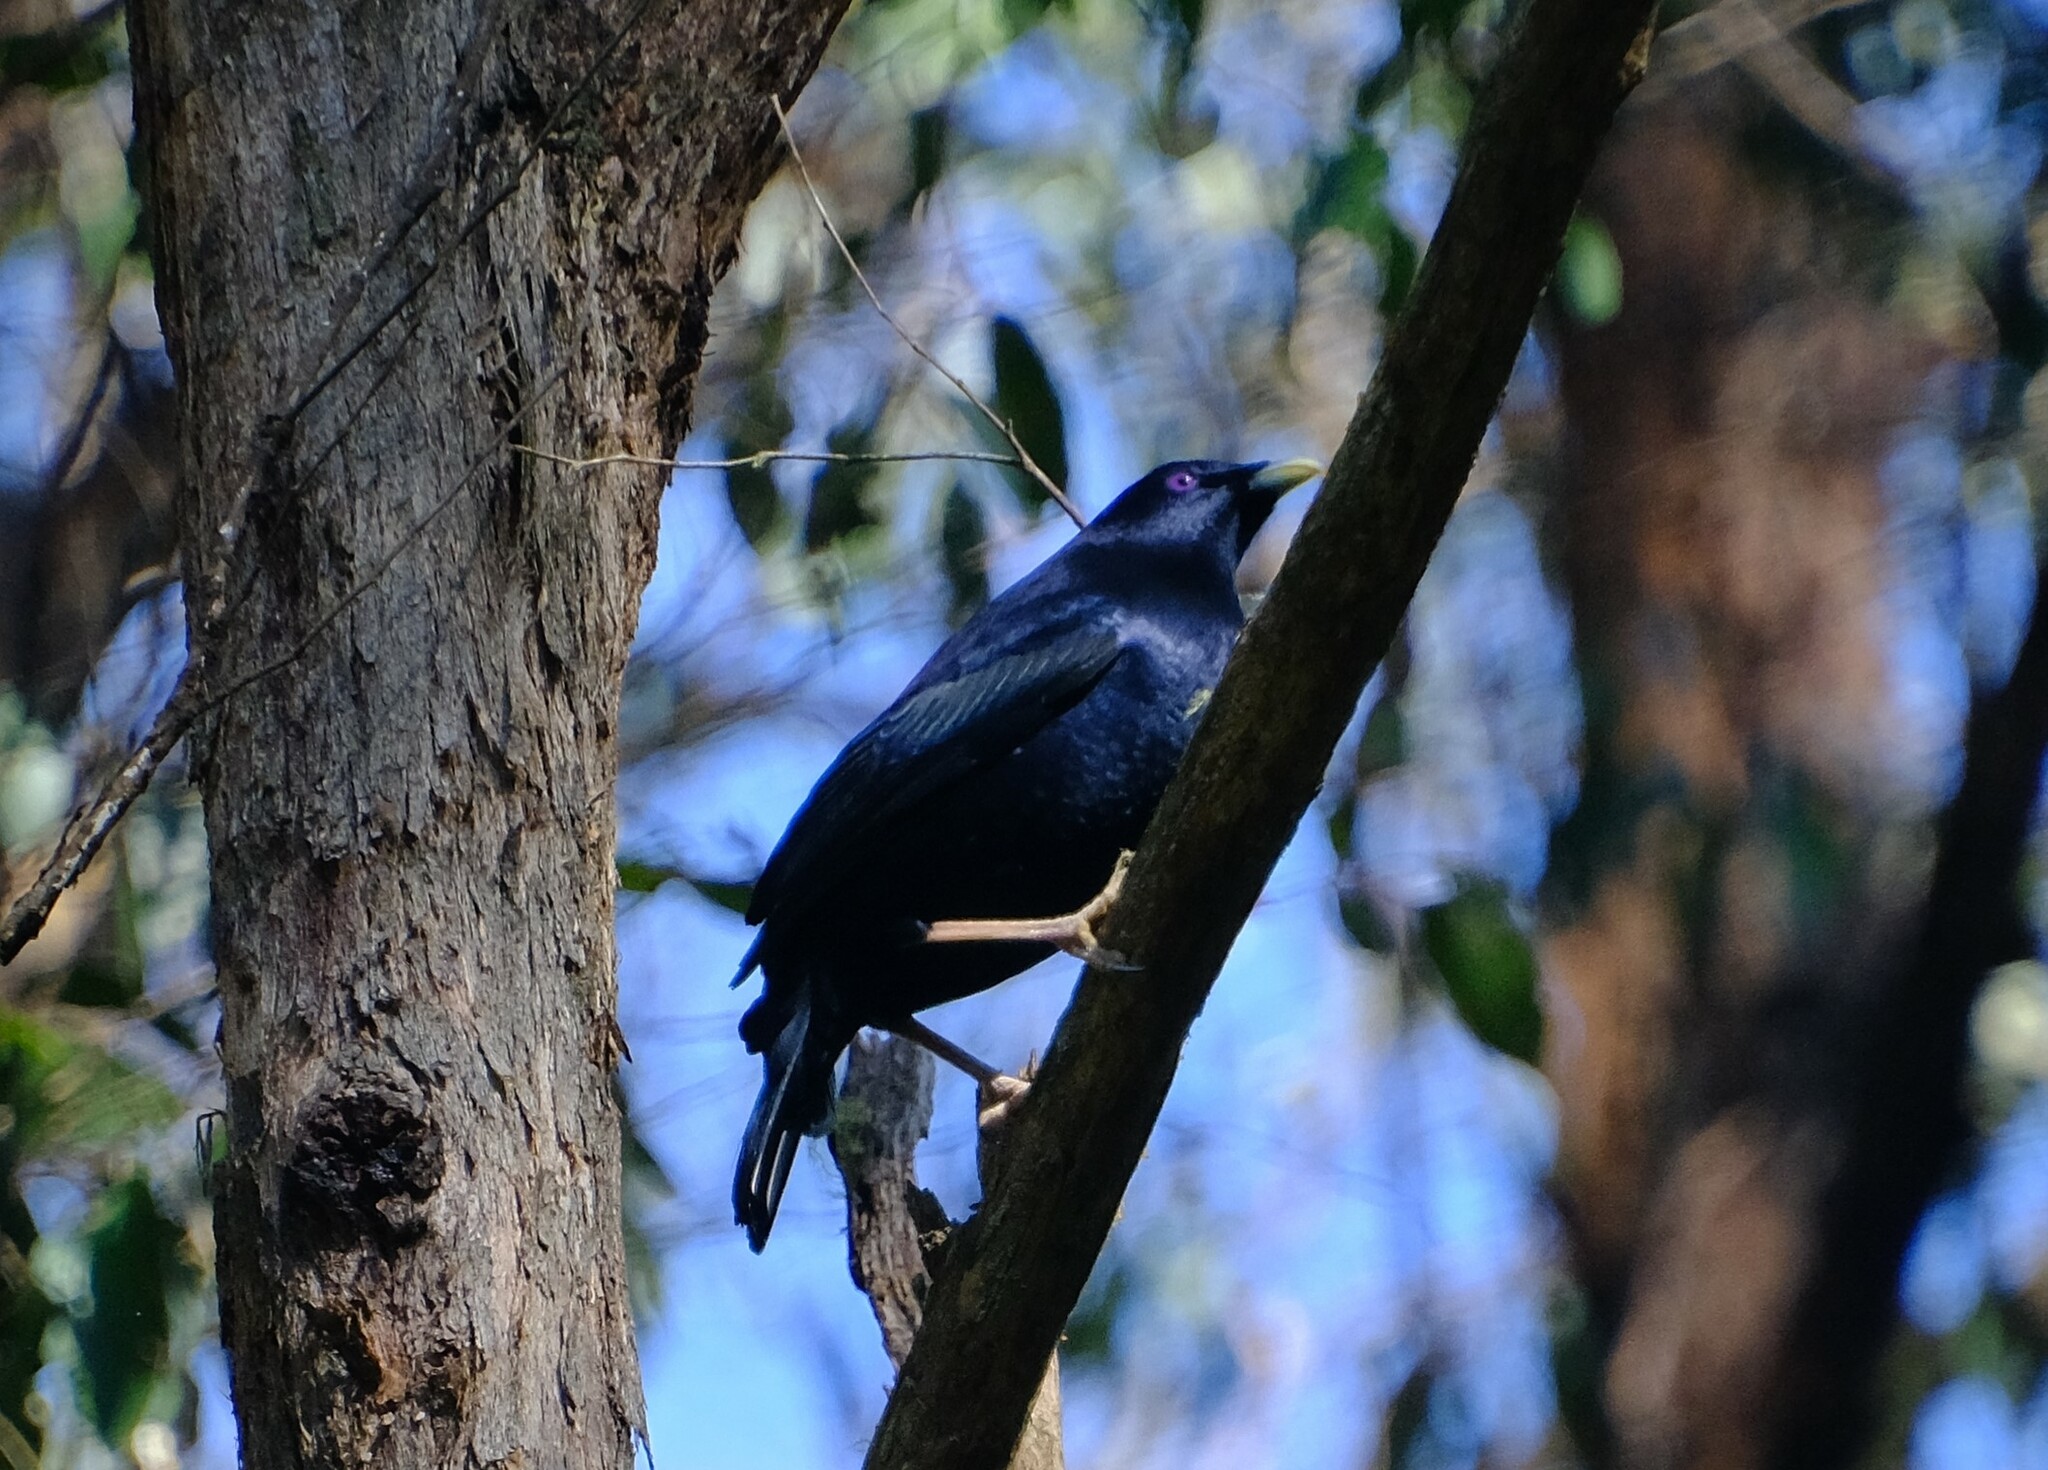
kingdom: Animalia
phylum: Chordata
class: Aves
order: Passeriformes
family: Ptilonorhynchidae
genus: Ptilonorhynchus
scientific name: Ptilonorhynchus violaceus
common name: Satin bowerbird
